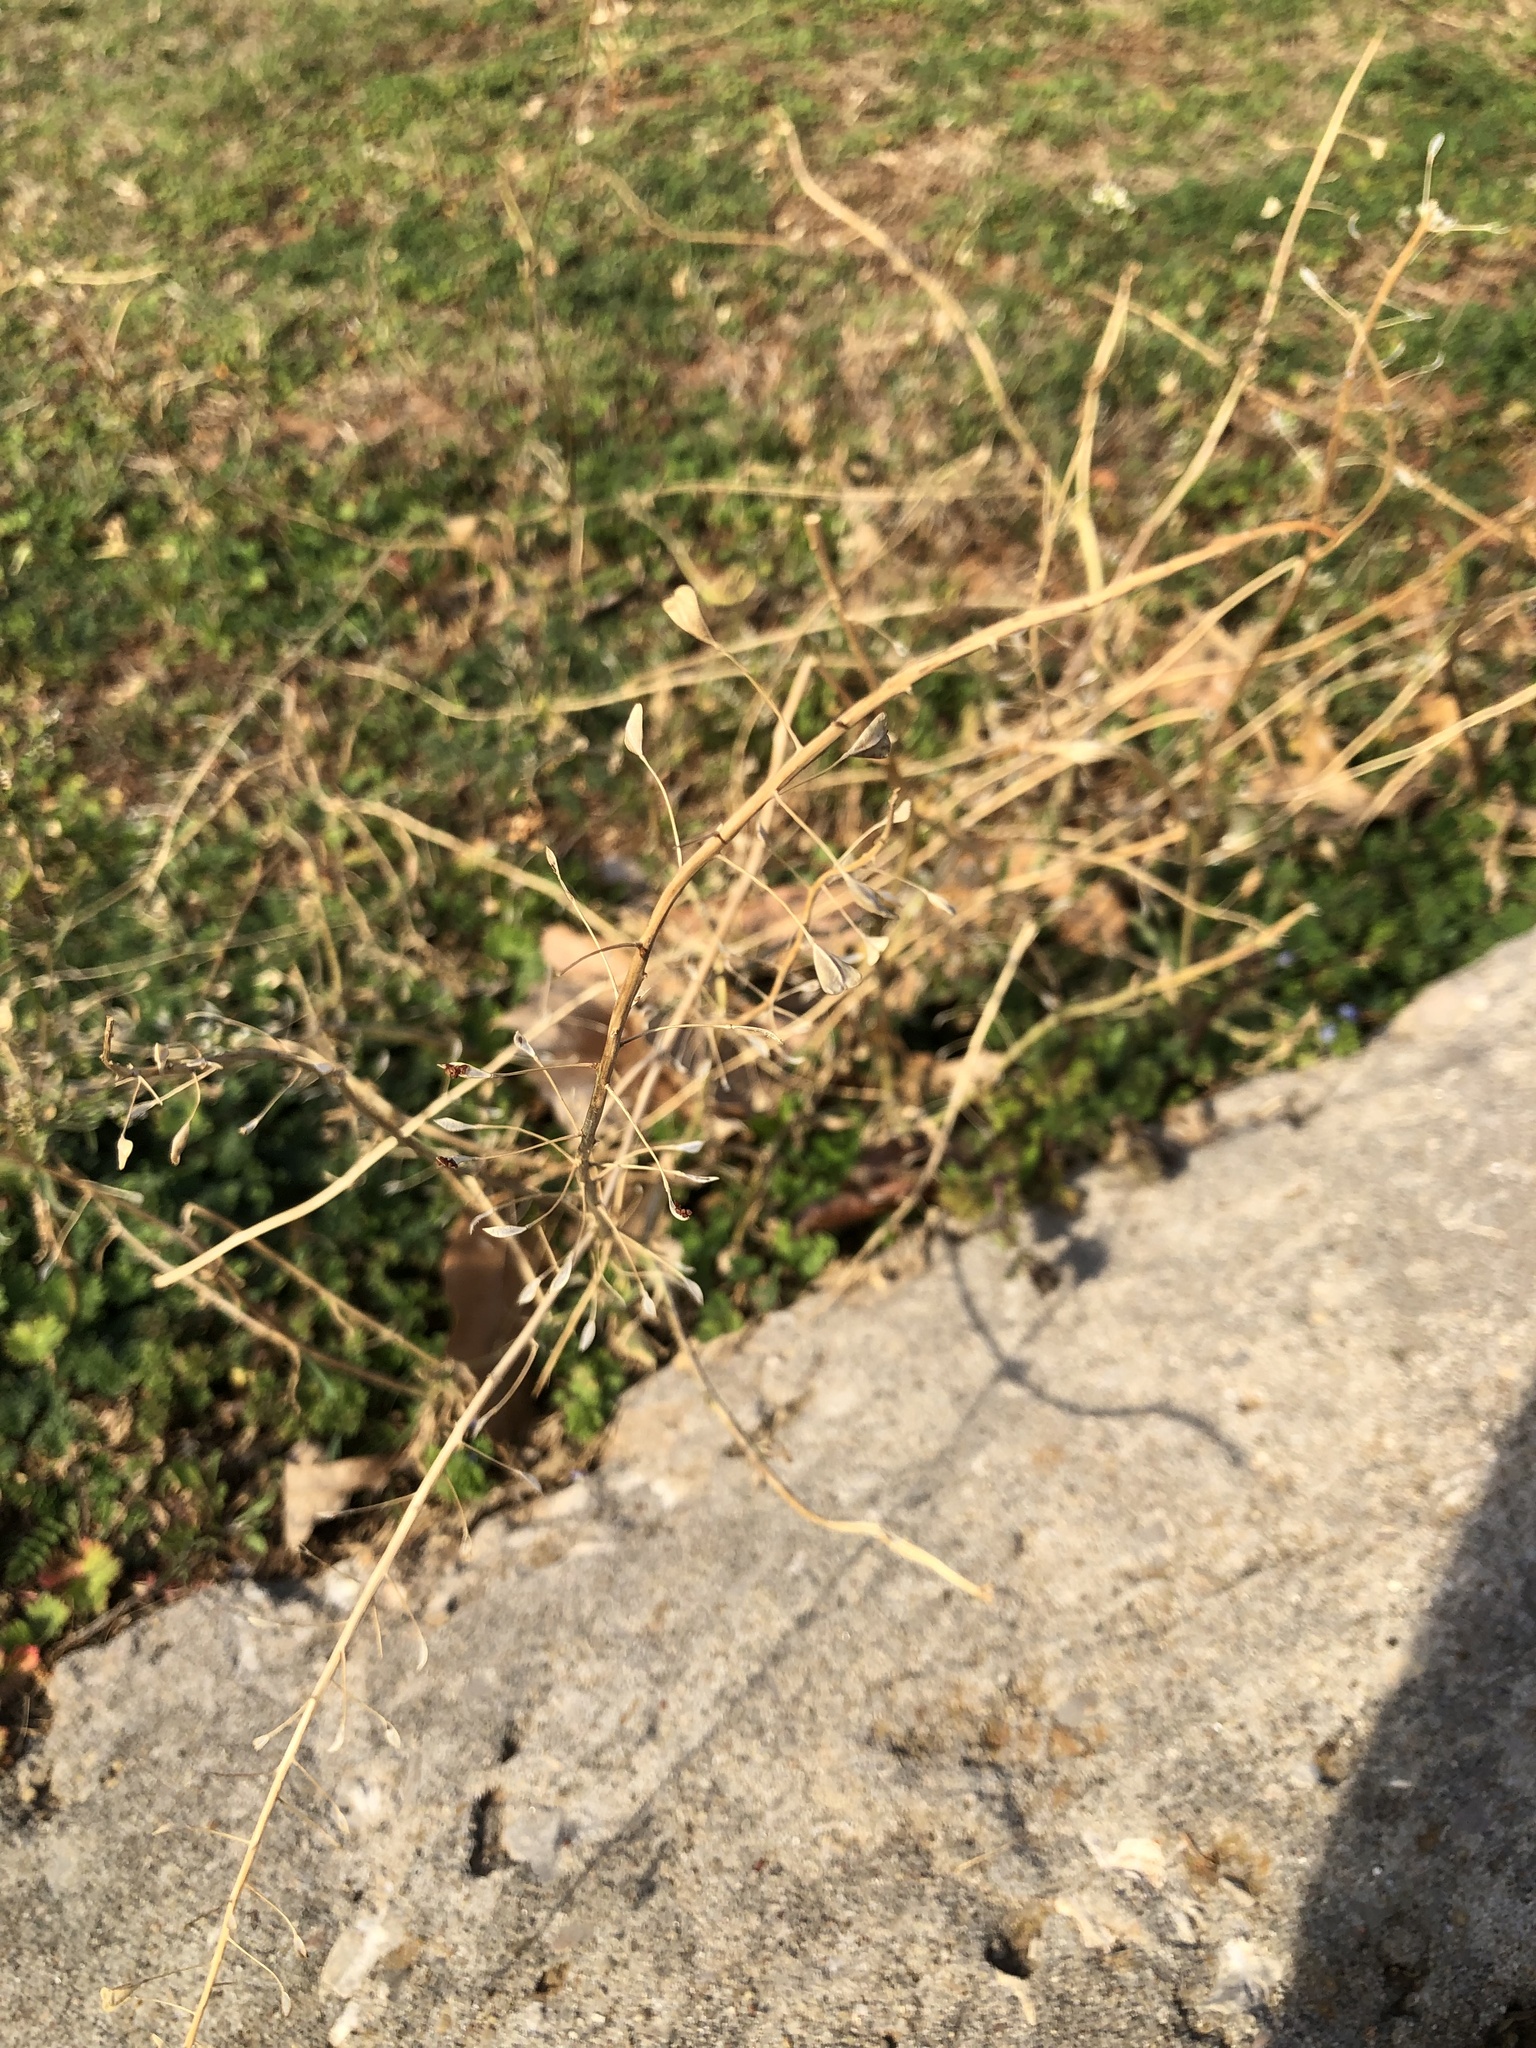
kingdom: Plantae
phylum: Tracheophyta
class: Magnoliopsida
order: Brassicales
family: Brassicaceae
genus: Capsella
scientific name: Capsella bursa-pastoris
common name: Shepherd's purse
